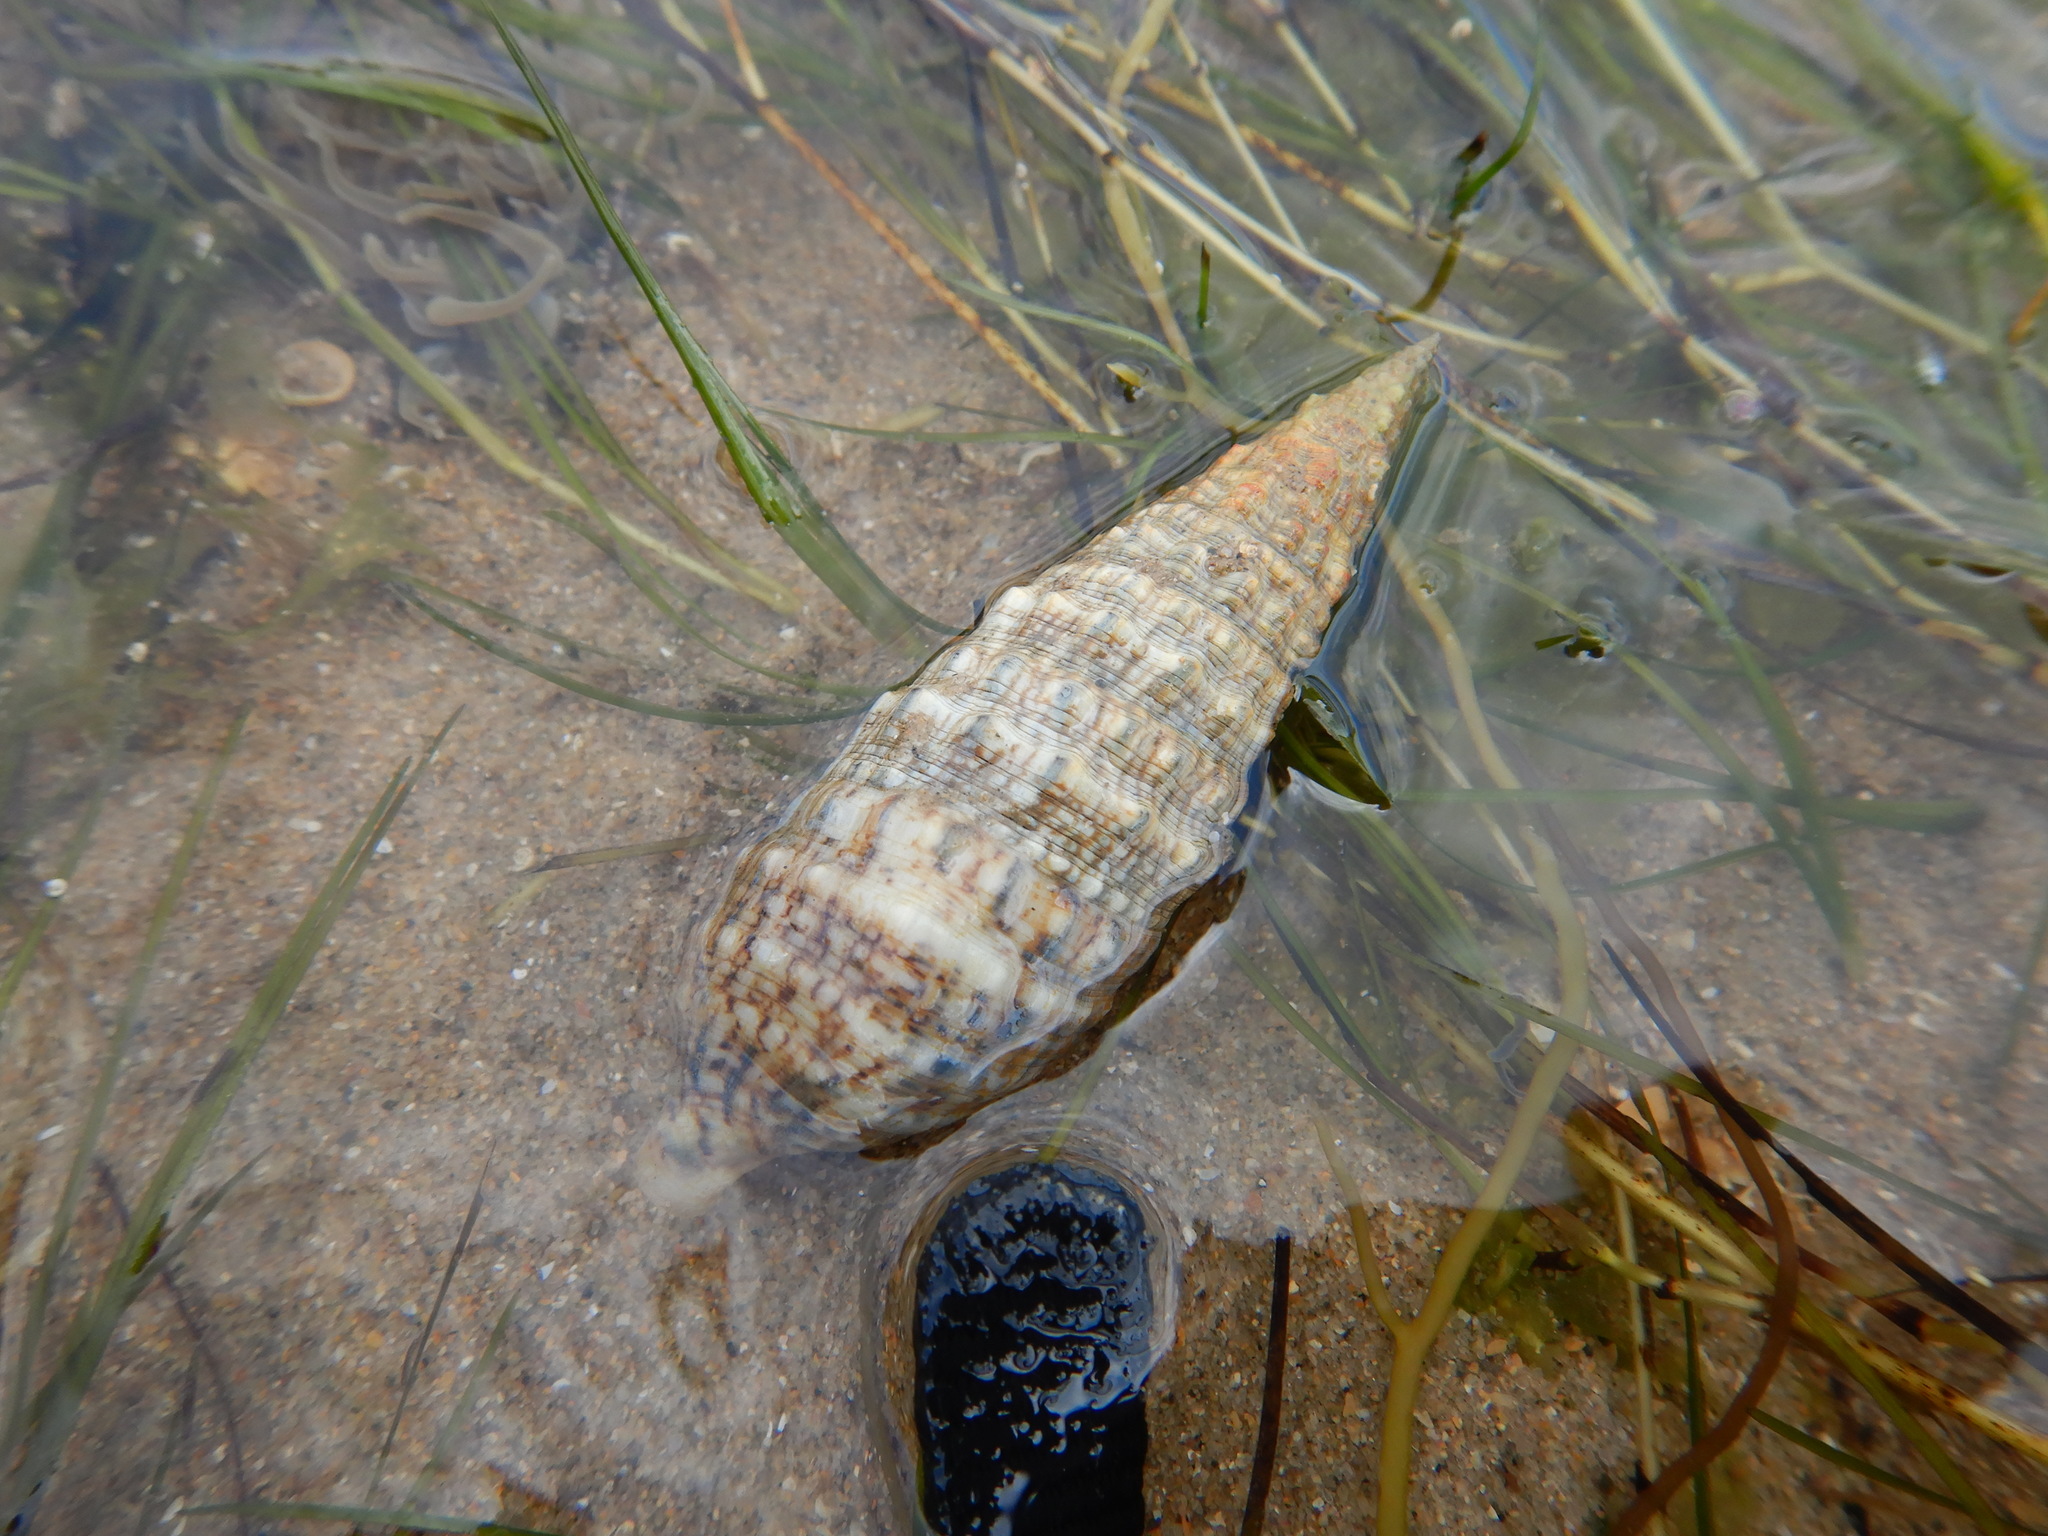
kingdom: Animalia
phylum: Mollusca
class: Gastropoda
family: Cerithiidae
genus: Cerithium
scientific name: Cerithium vulgatum
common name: European cerith
